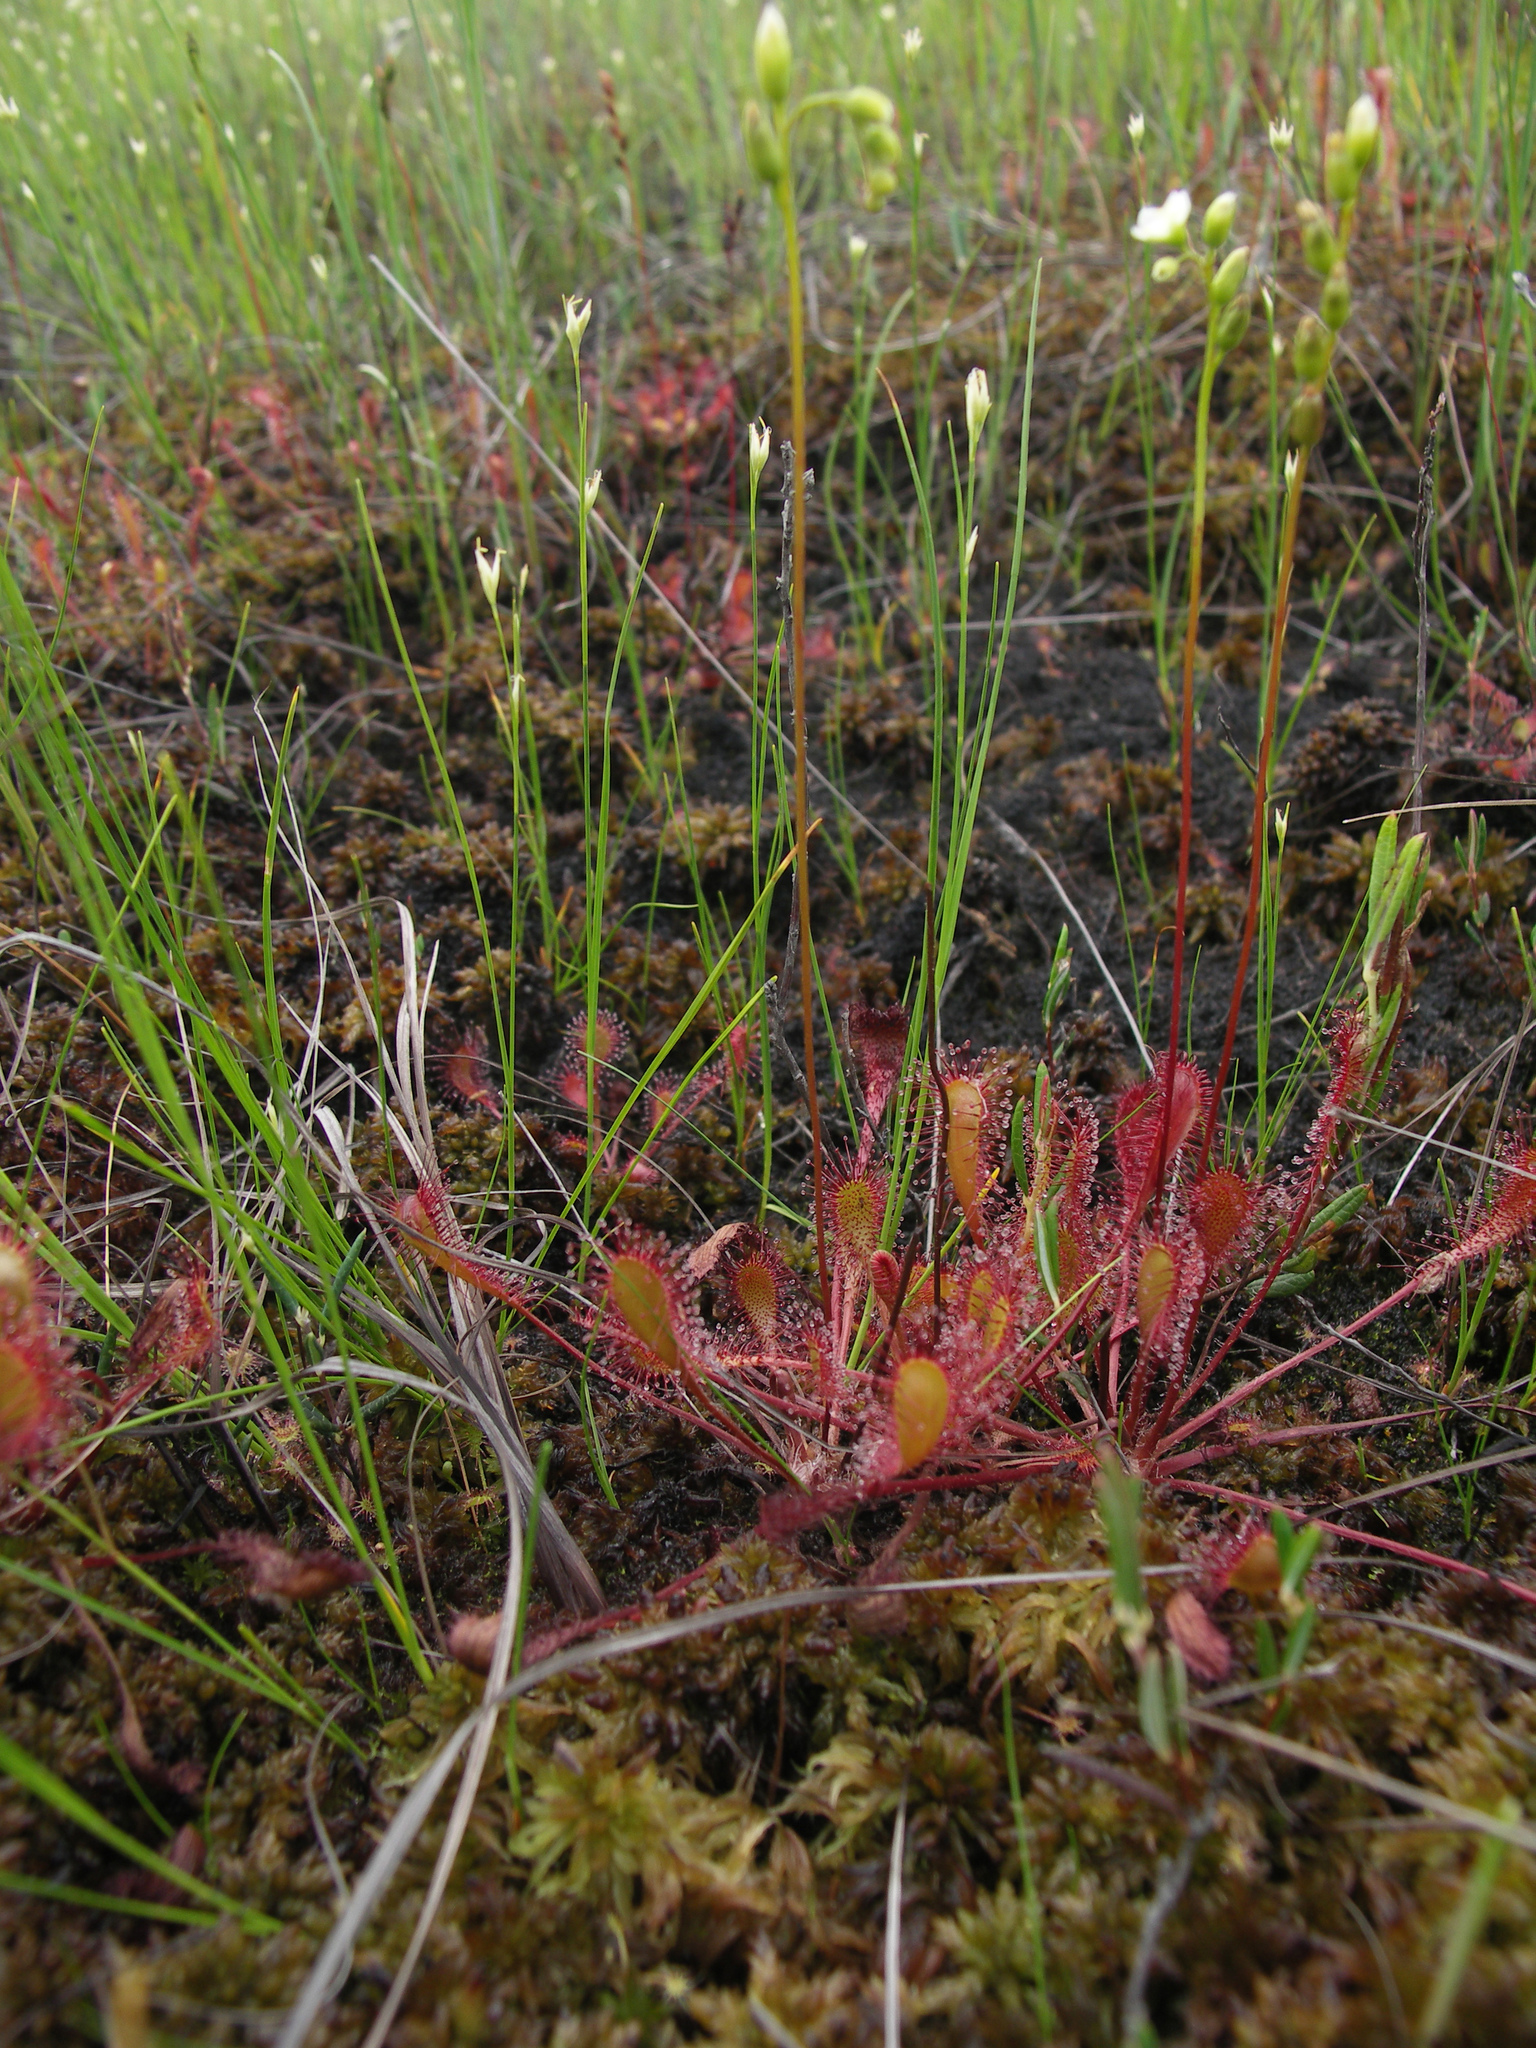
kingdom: Plantae
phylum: Tracheophyta
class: Magnoliopsida
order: Caryophyllales
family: Droseraceae
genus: Drosera
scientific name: Drosera anglica
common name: Great sundew
